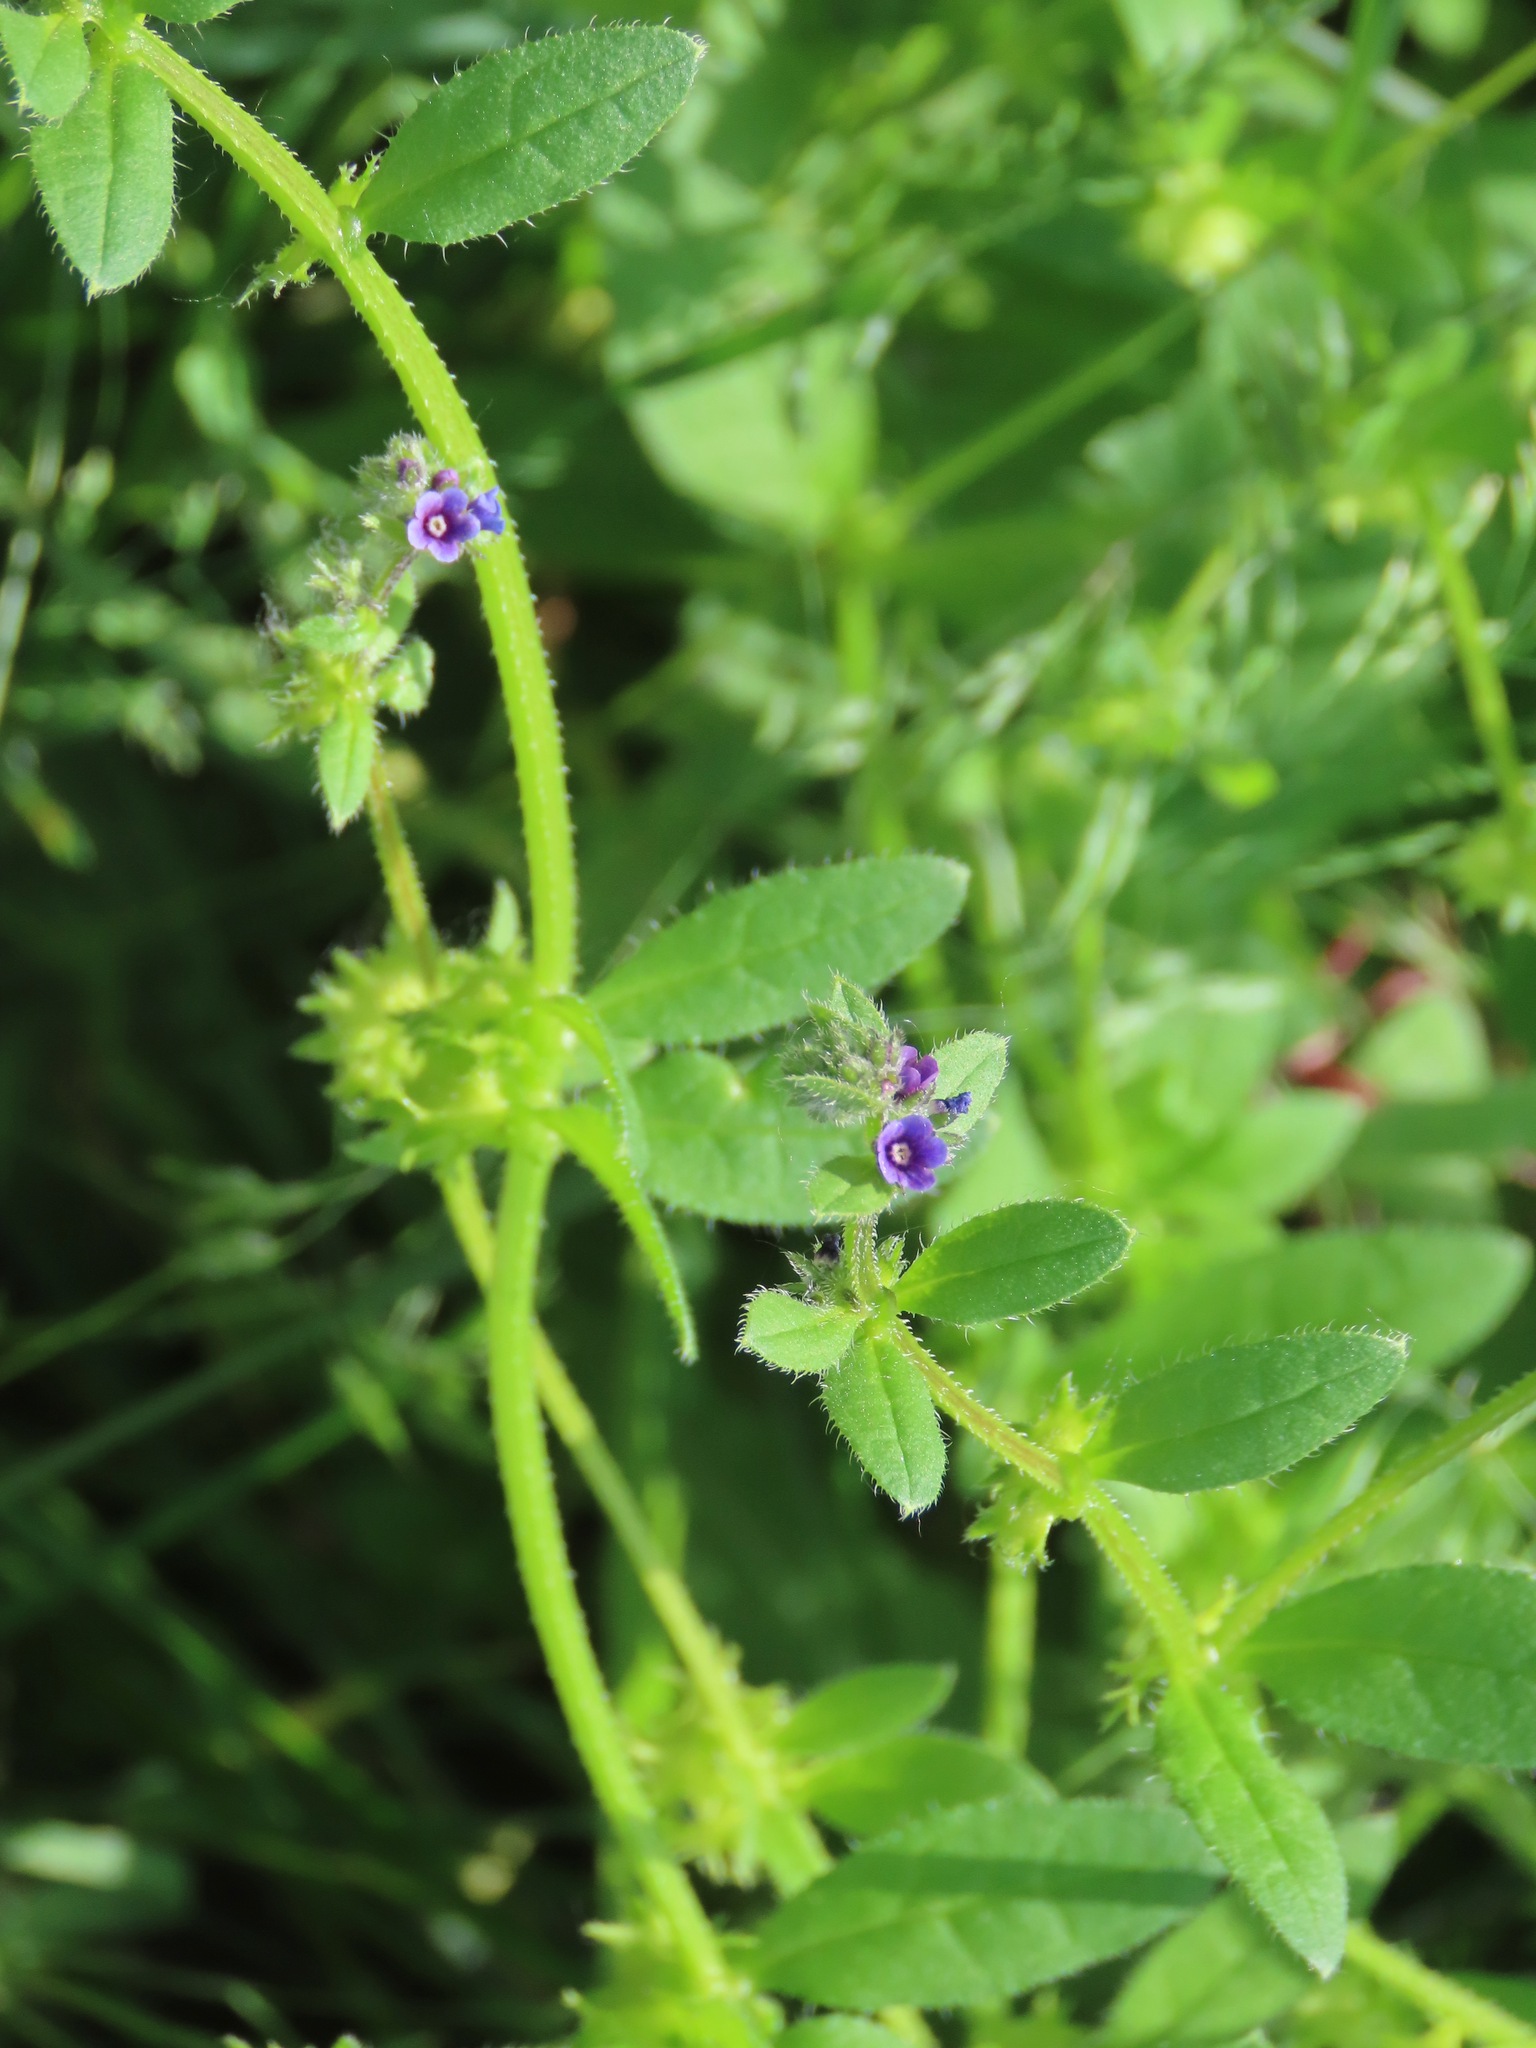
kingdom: Plantae
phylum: Tracheophyta
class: Magnoliopsida
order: Boraginales
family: Boraginaceae
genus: Asperugo
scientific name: Asperugo procumbens
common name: Madwort
